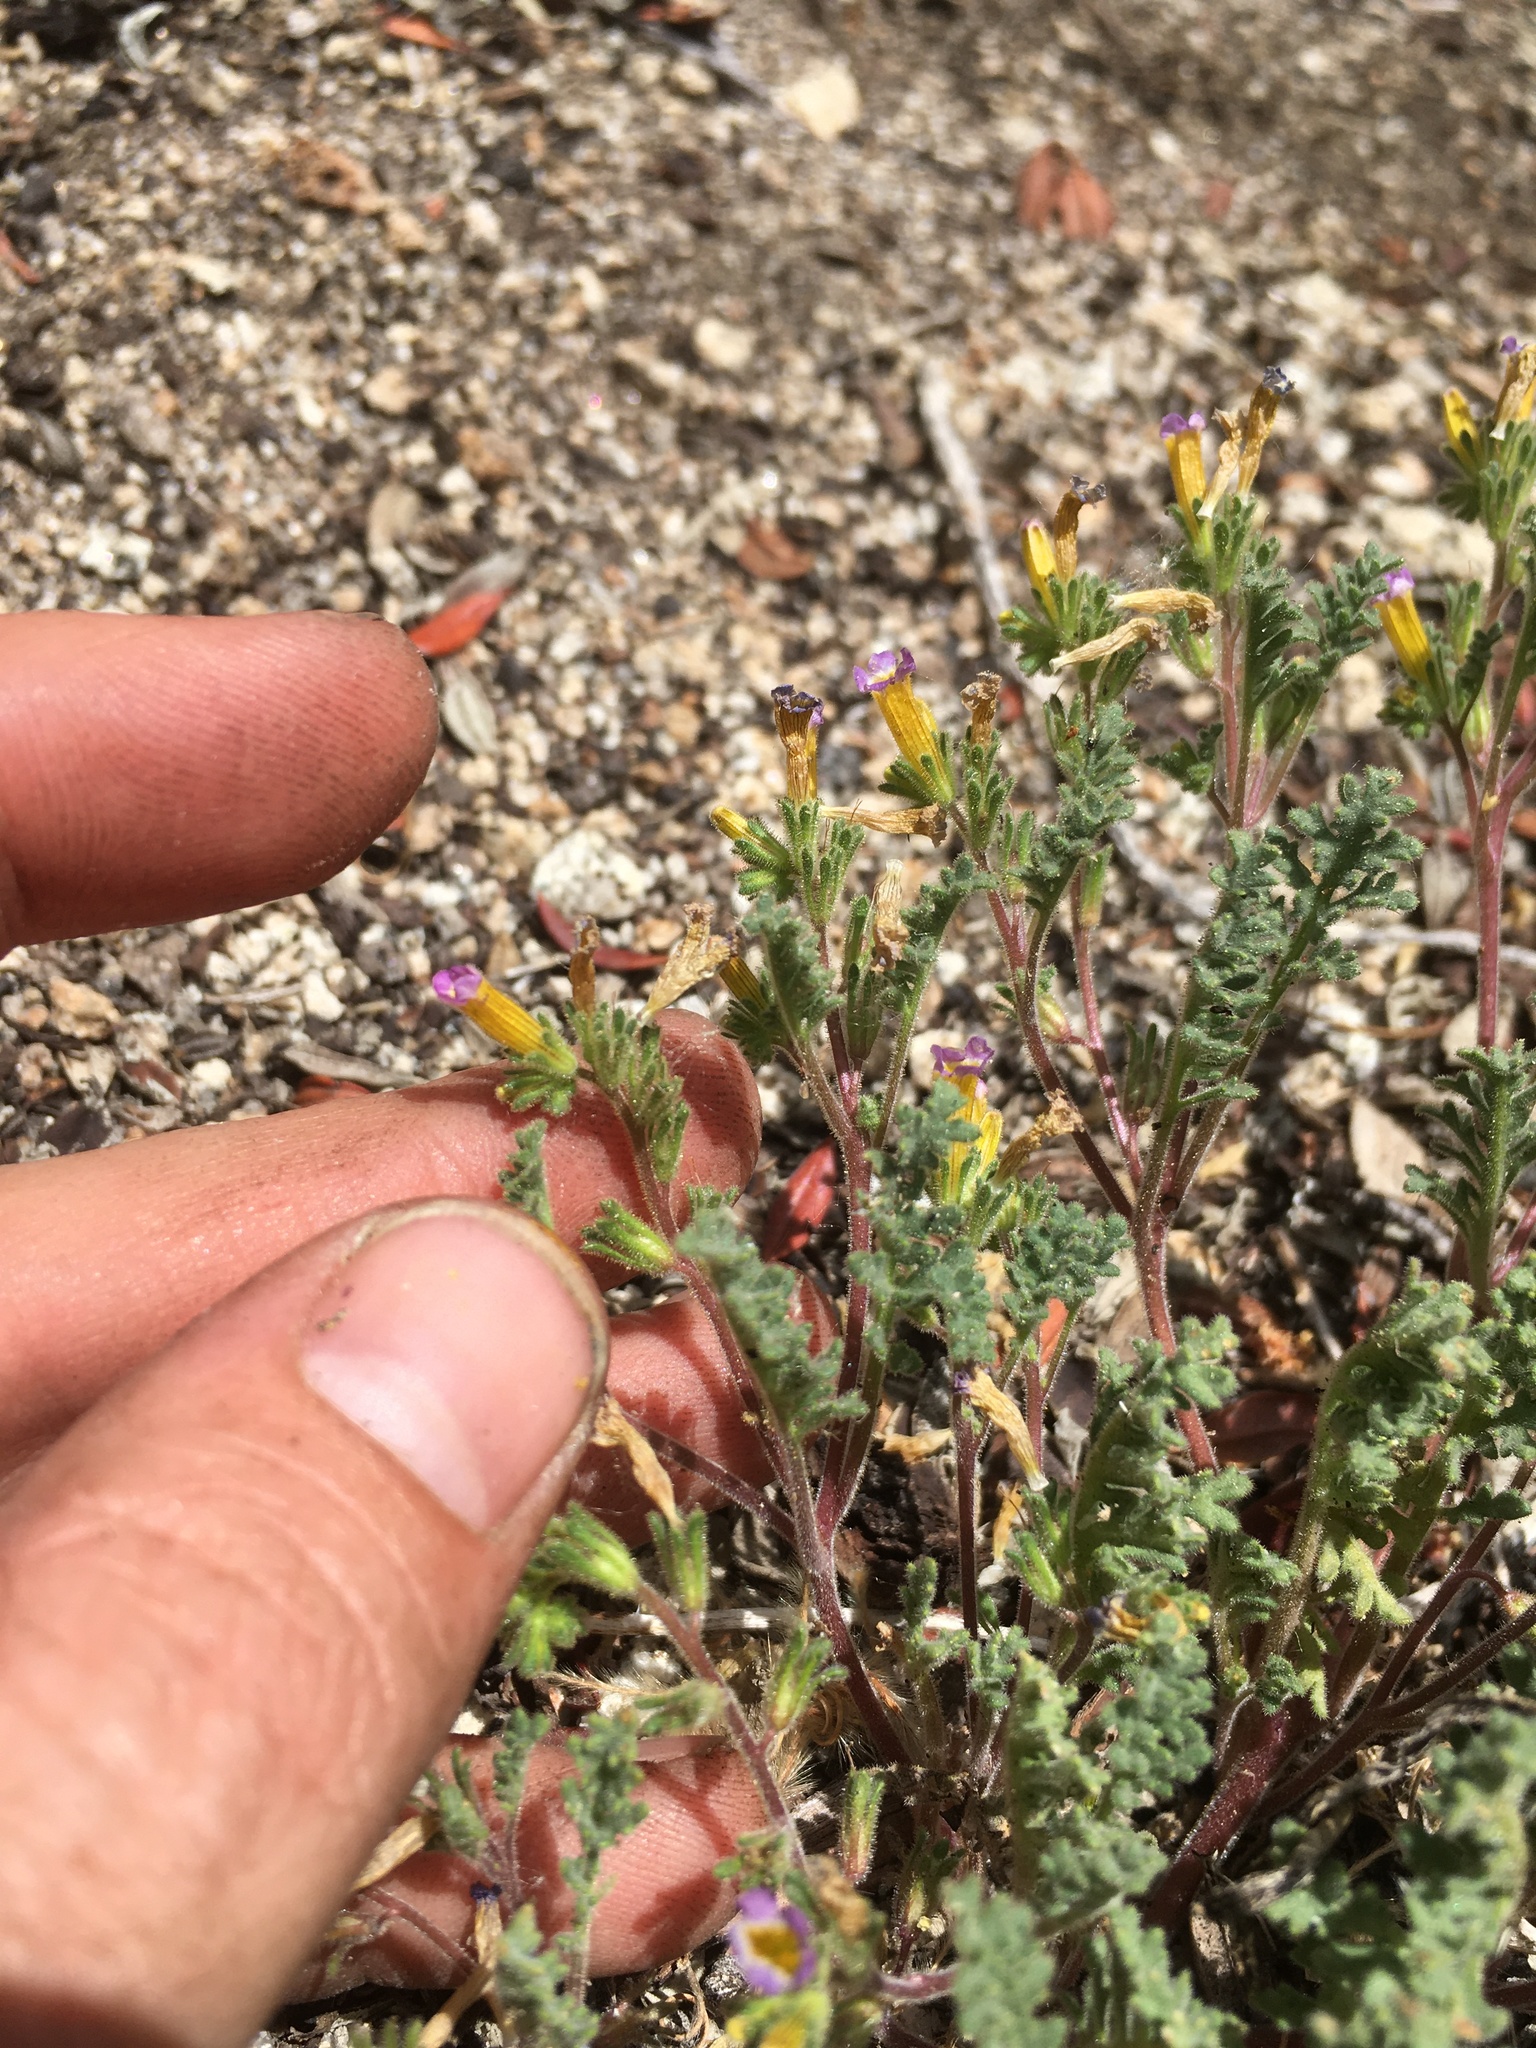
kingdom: Plantae
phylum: Tracheophyta
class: Magnoliopsida
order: Boraginales
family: Hydrophyllaceae
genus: Phacelia
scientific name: Phacelia bicolor
